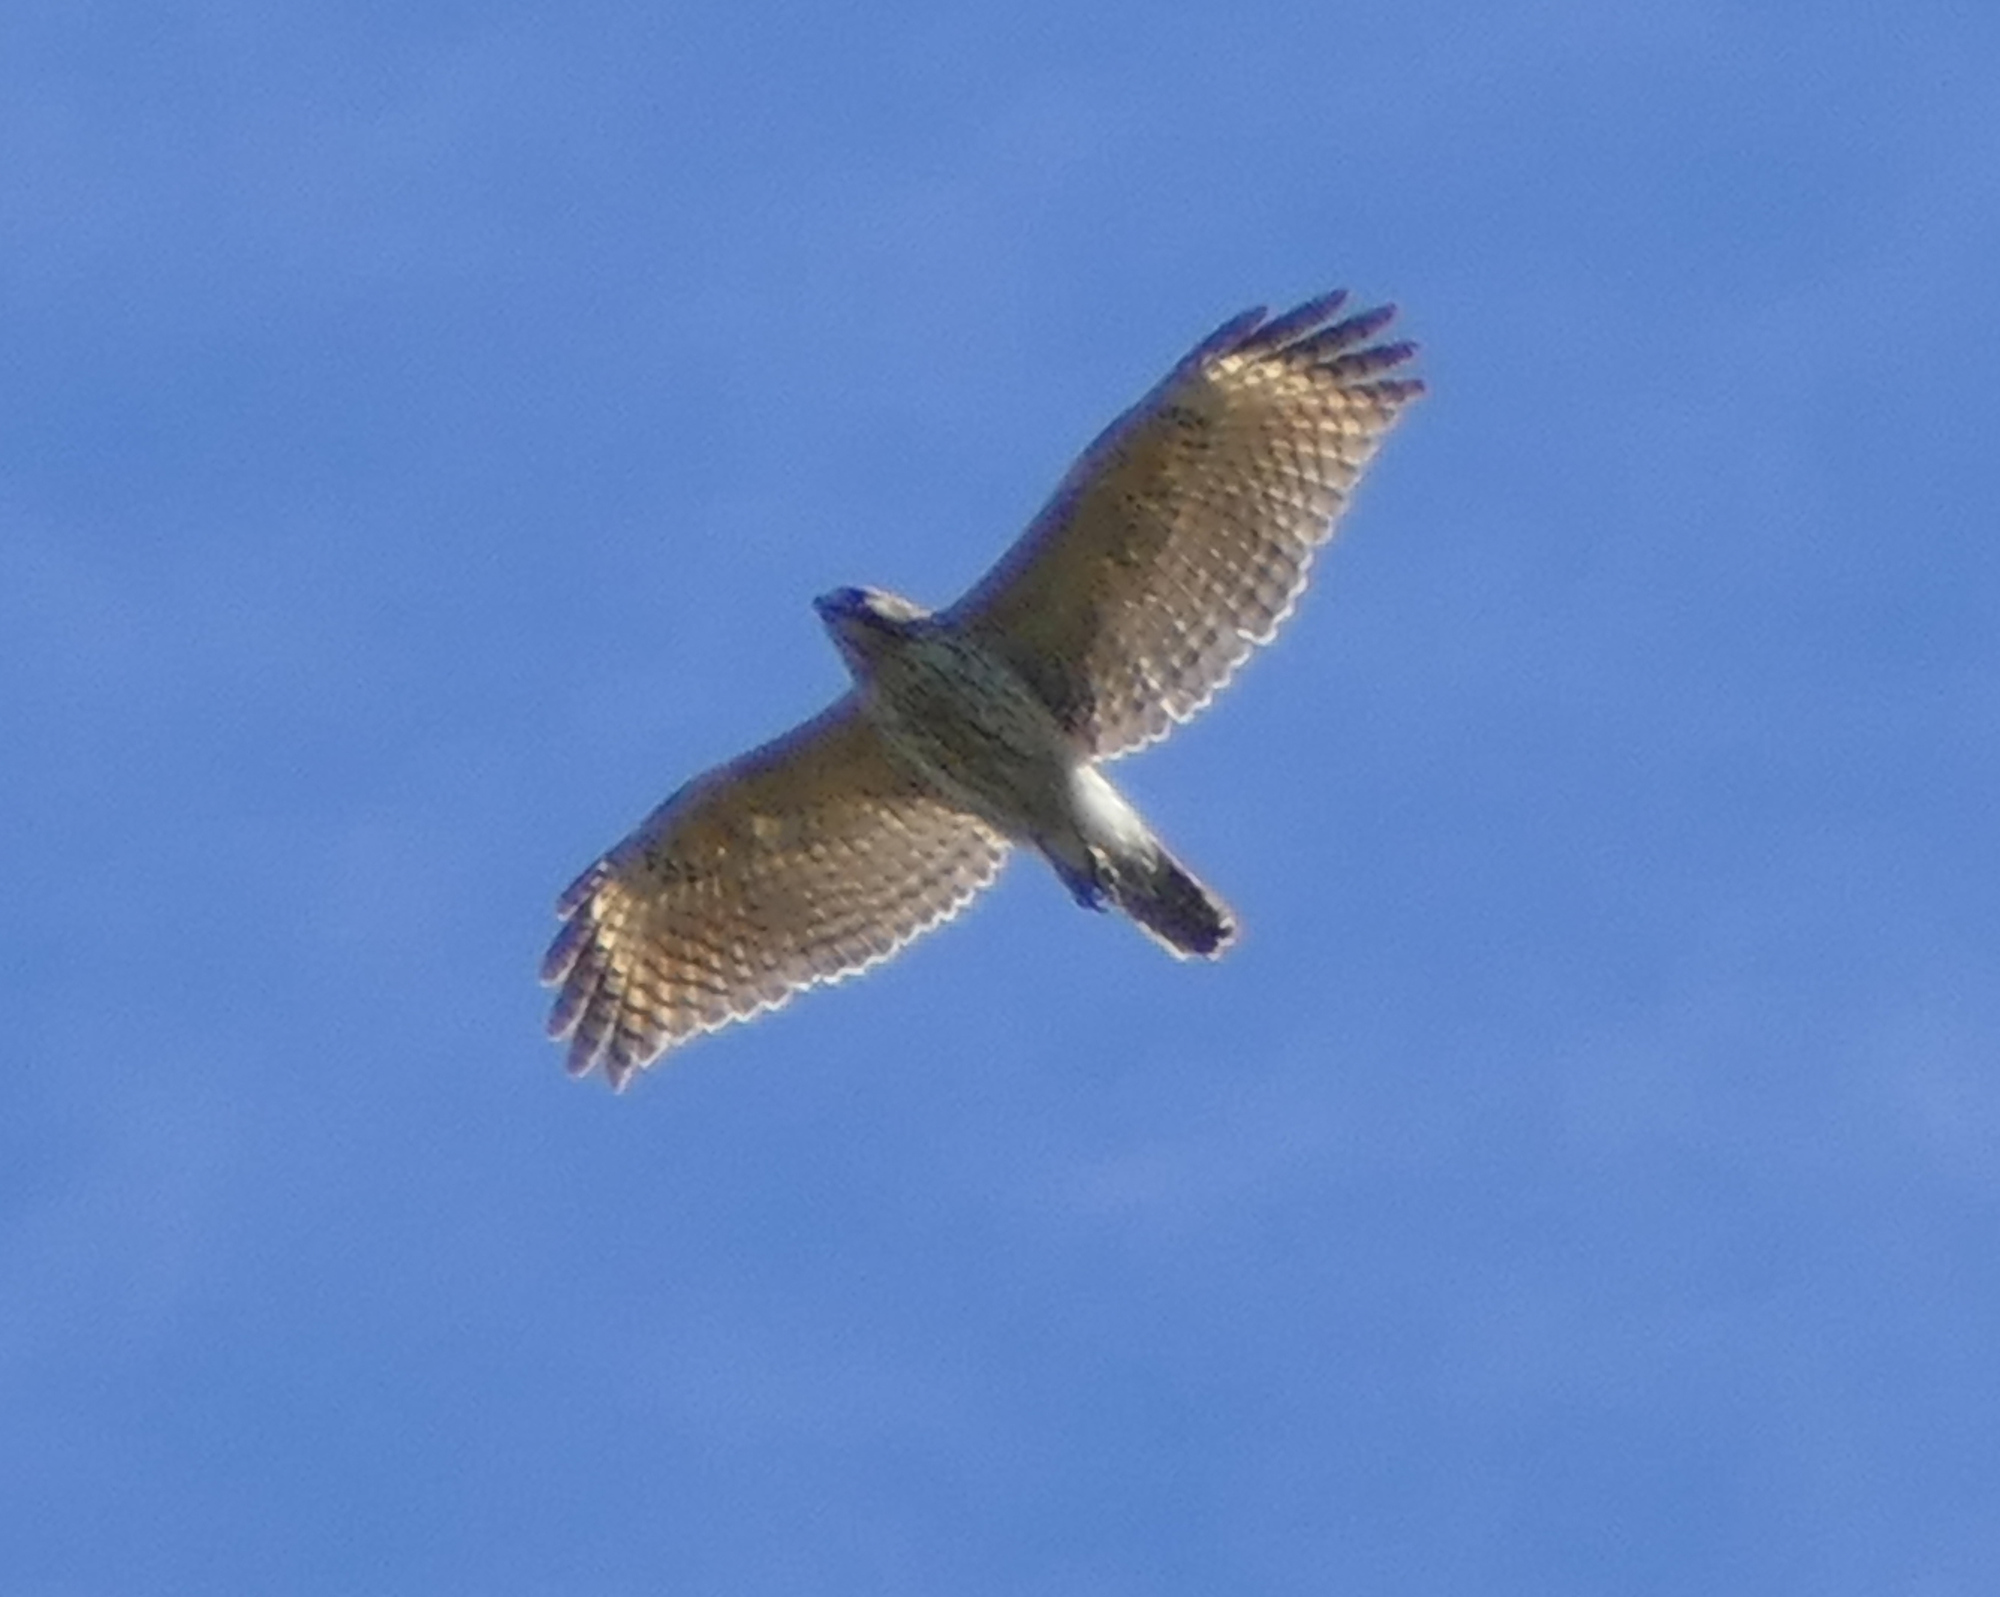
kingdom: Animalia
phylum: Chordata
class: Aves
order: Accipitriformes
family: Accipitridae
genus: Buteo
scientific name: Buteo lineatus
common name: Red-shouldered hawk
